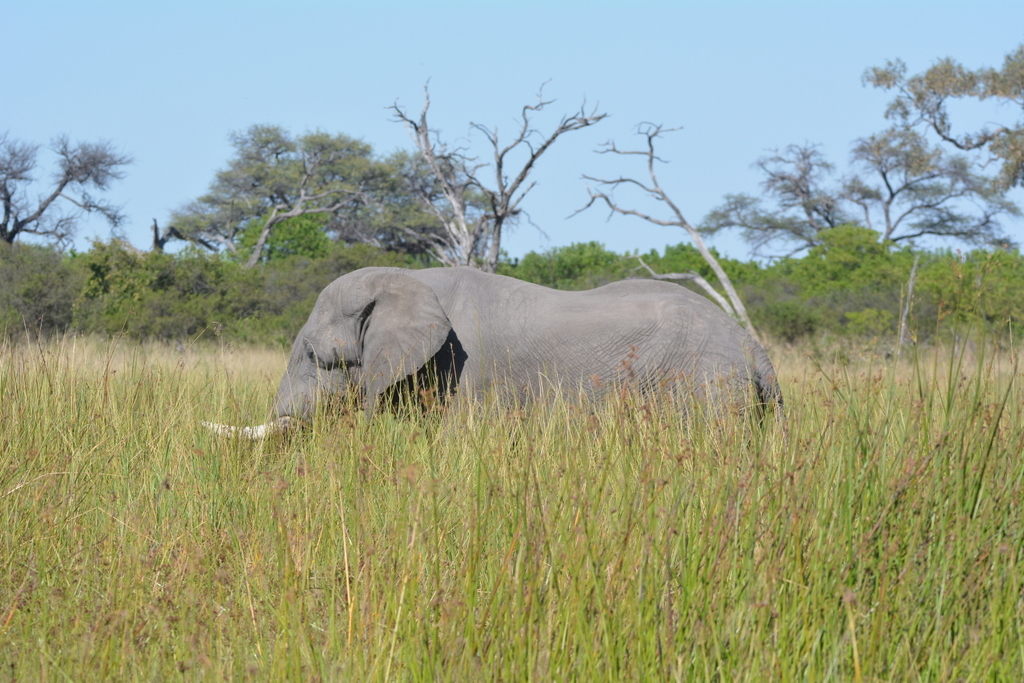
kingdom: Animalia
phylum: Chordata
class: Mammalia
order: Proboscidea
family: Elephantidae
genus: Loxodonta
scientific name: Loxodonta africana
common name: African elephant
